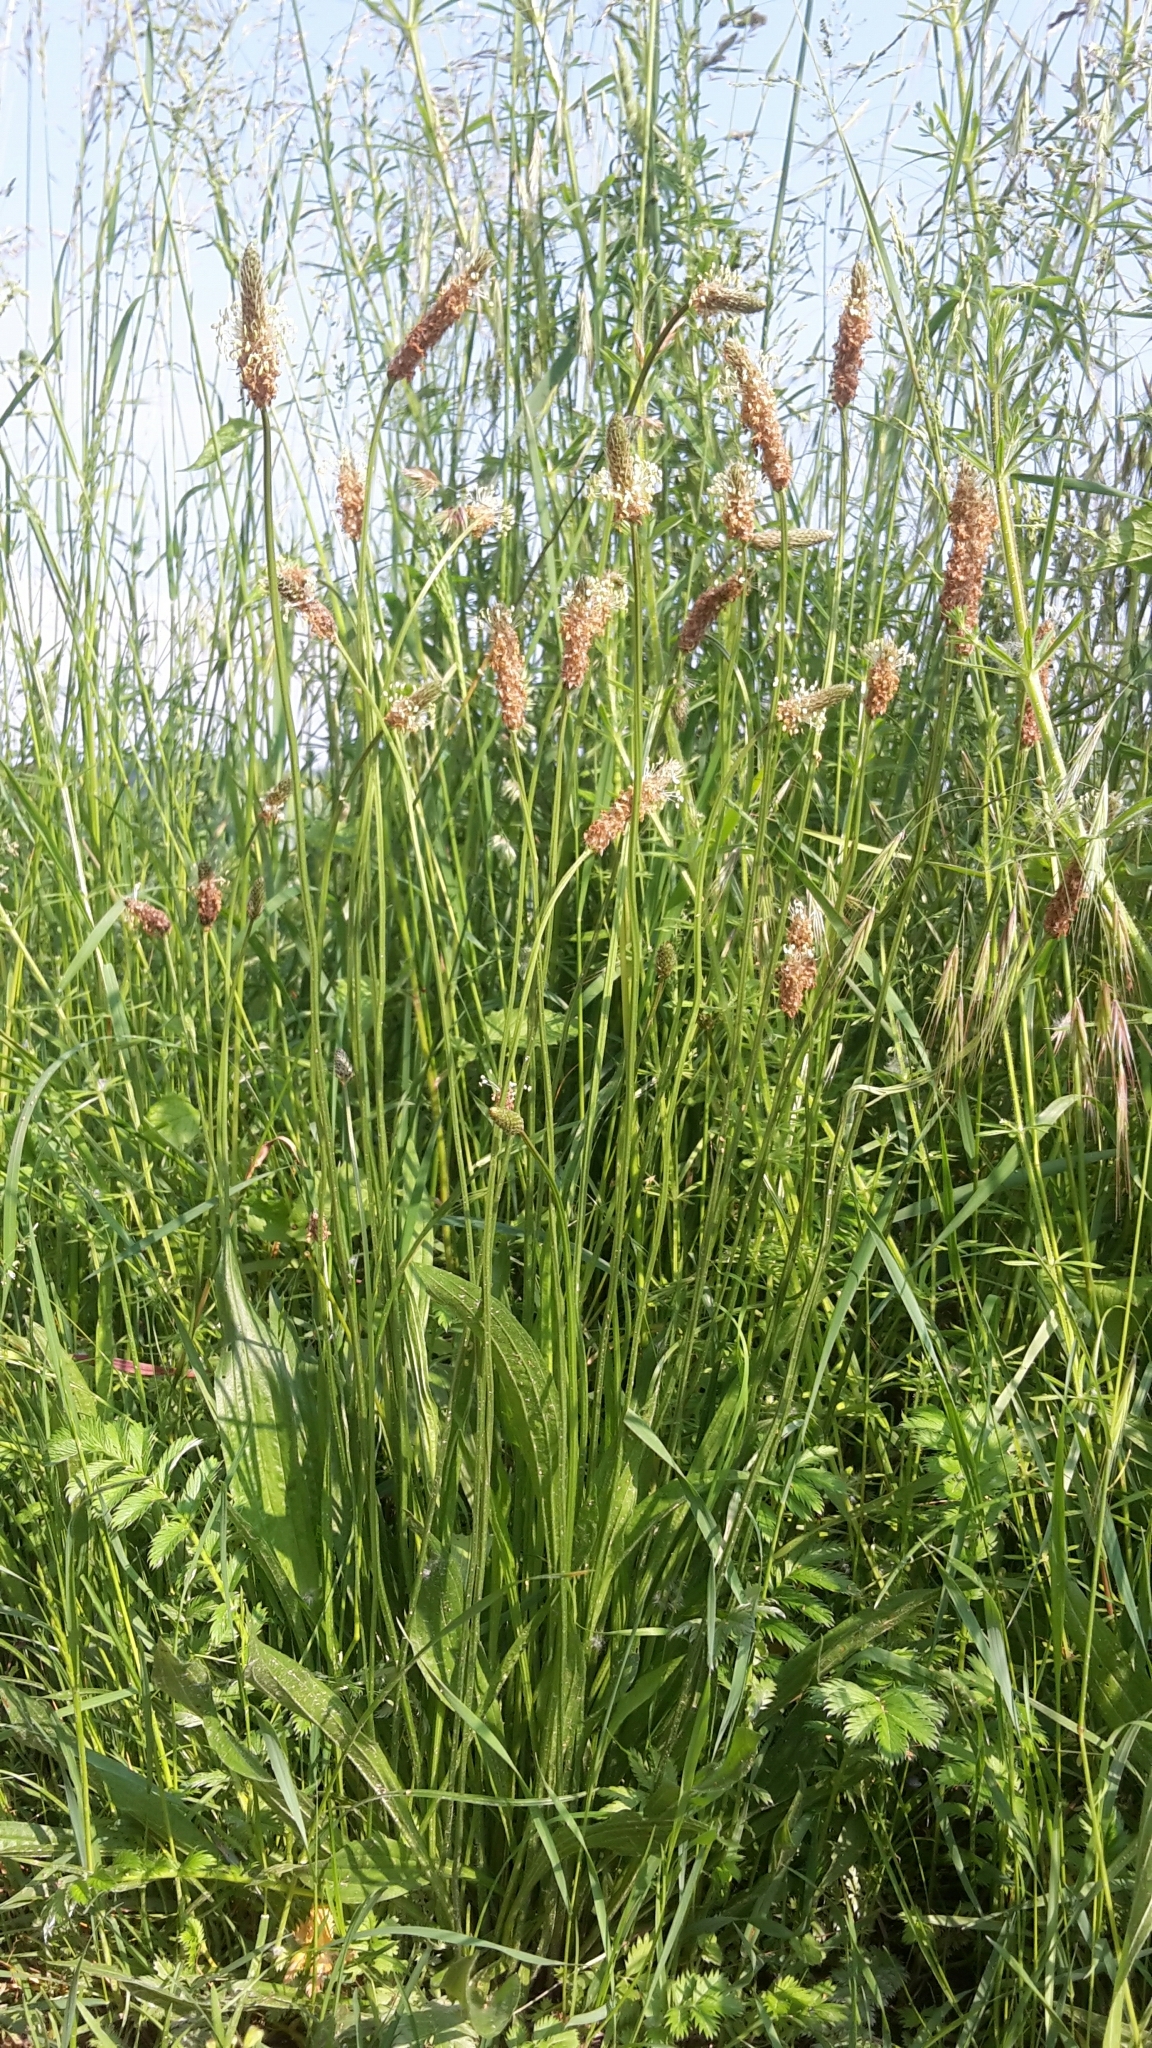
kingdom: Plantae
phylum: Tracheophyta
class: Magnoliopsida
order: Lamiales
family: Plantaginaceae
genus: Plantago
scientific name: Plantago lanceolata
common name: Ribwort plantain
